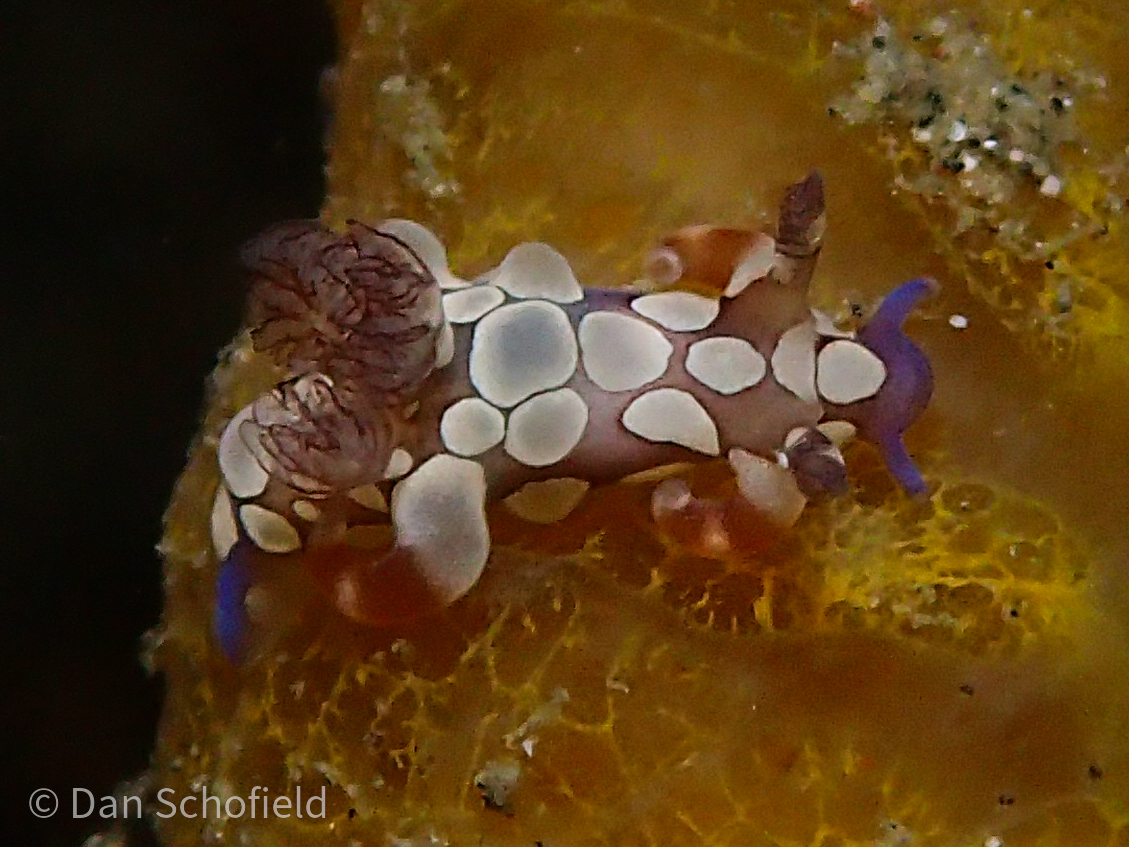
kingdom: Animalia
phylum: Mollusca
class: Gastropoda
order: Nudibranchia
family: Goniodorididae
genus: Trapania
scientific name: Trapania scurra
